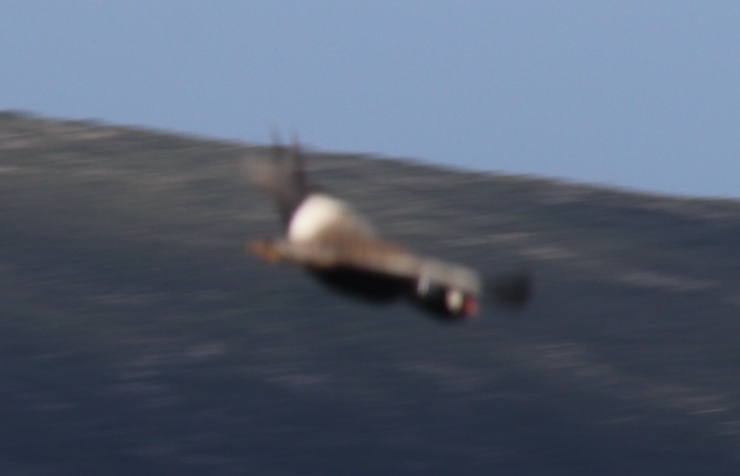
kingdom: Animalia
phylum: Chordata
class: Aves
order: Otidiformes
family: Otididae
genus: Afrotis
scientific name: Afrotis afra
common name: Southern black korhaan
